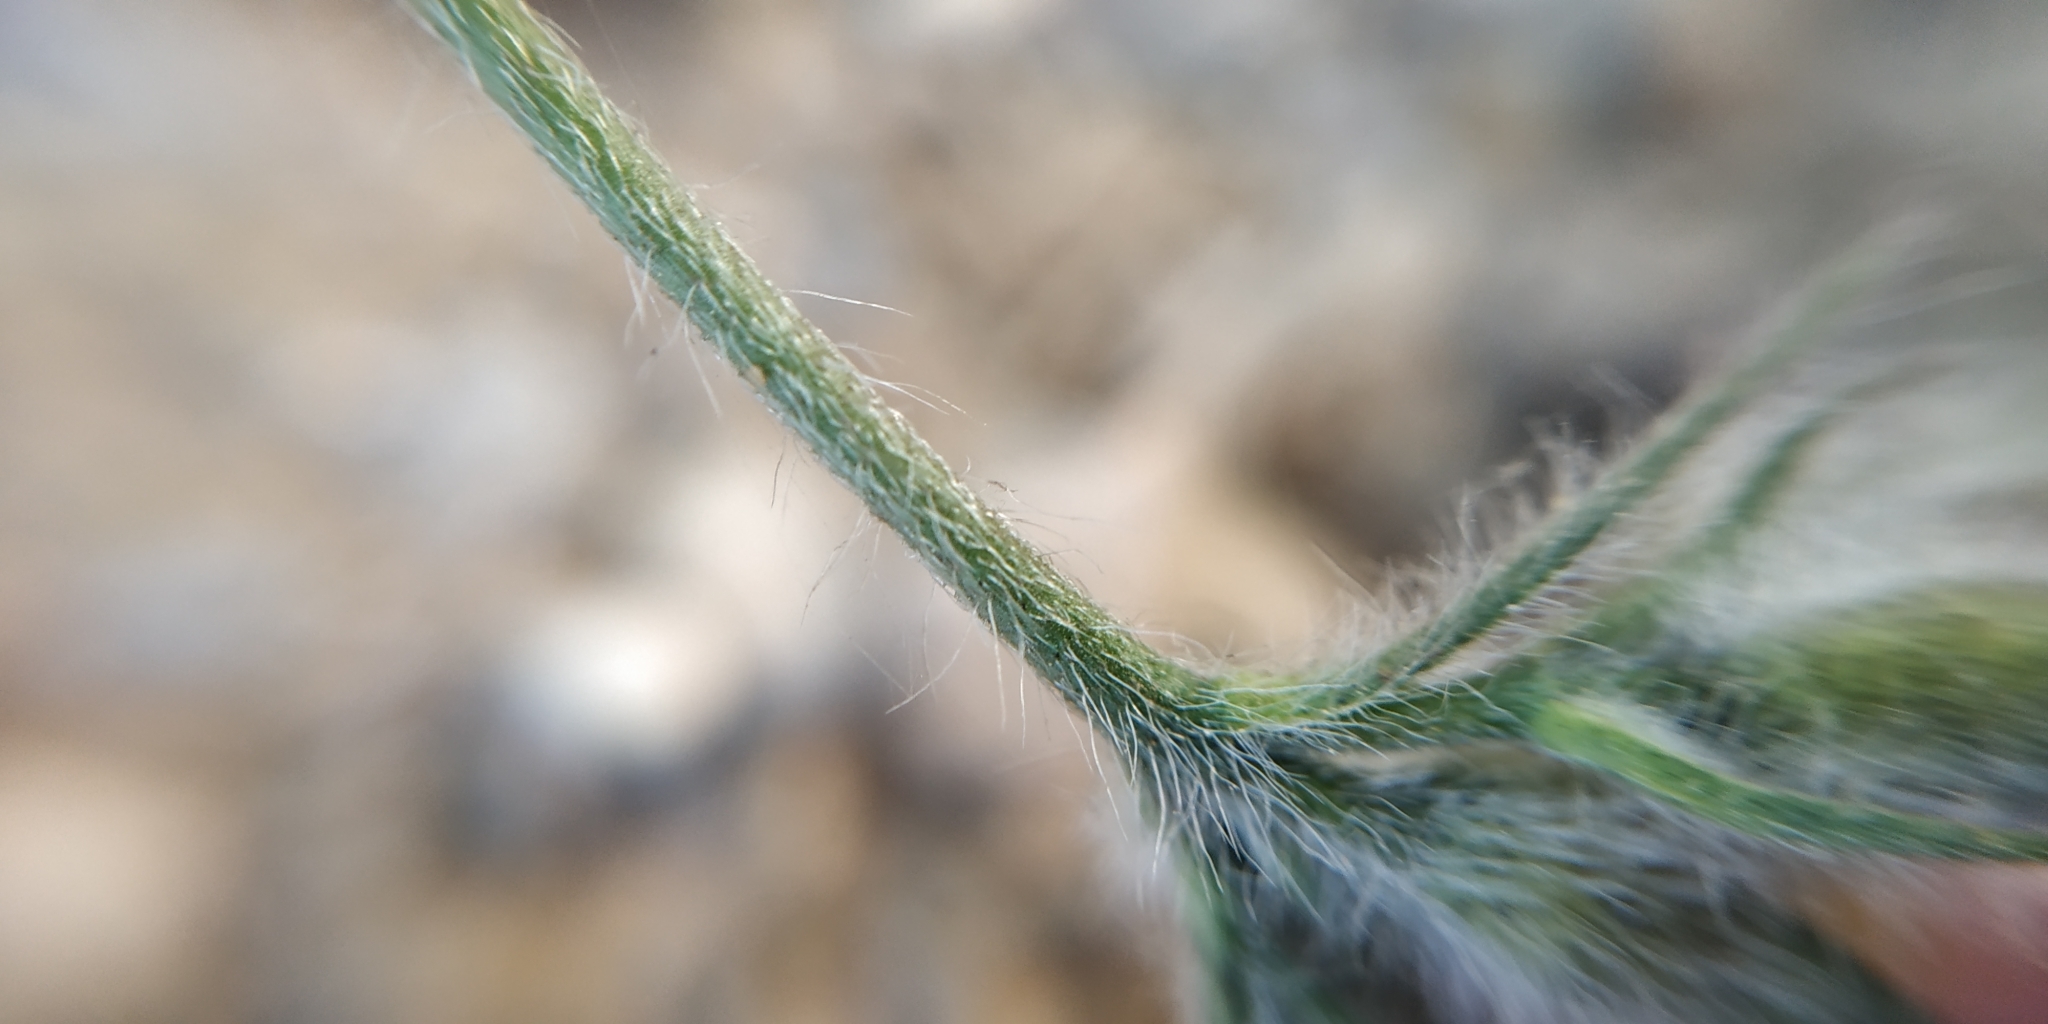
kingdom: Plantae
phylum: Tracheophyta
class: Magnoliopsida
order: Solanales
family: Convolvulaceae
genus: Convolvulus
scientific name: Convolvulus cantabrica
